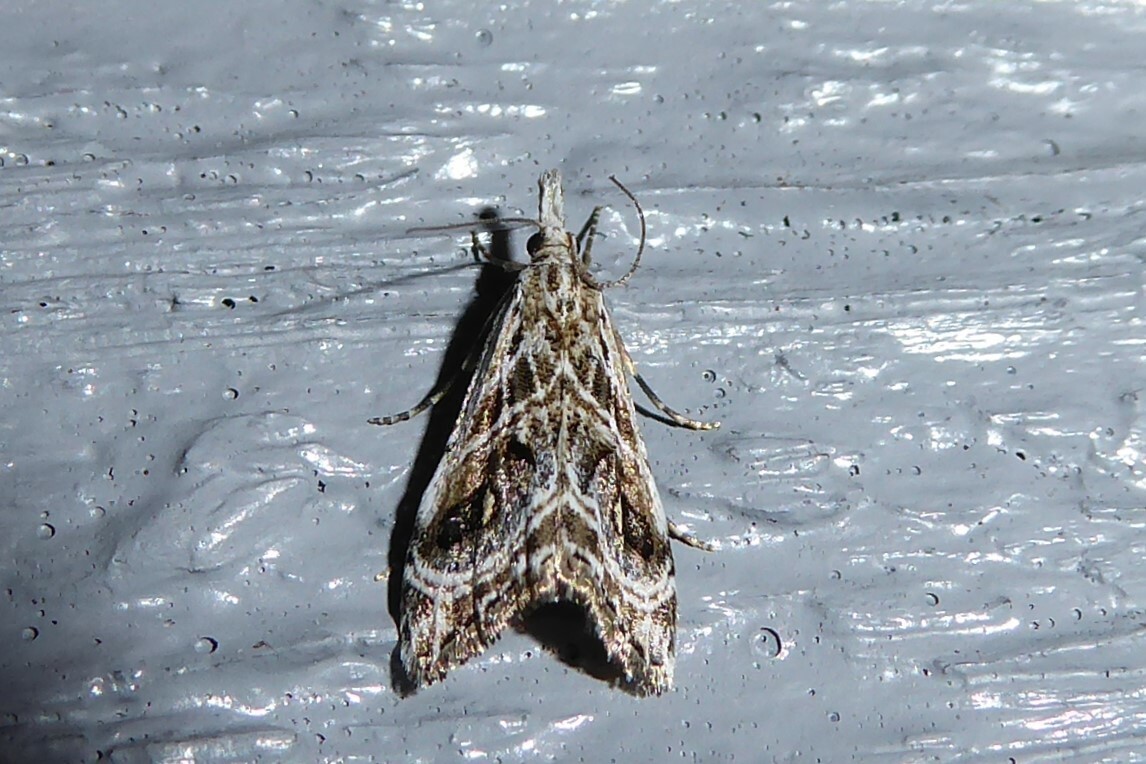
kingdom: Animalia
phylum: Arthropoda
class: Insecta
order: Lepidoptera
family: Crambidae
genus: Gadira
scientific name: Gadira acerella
